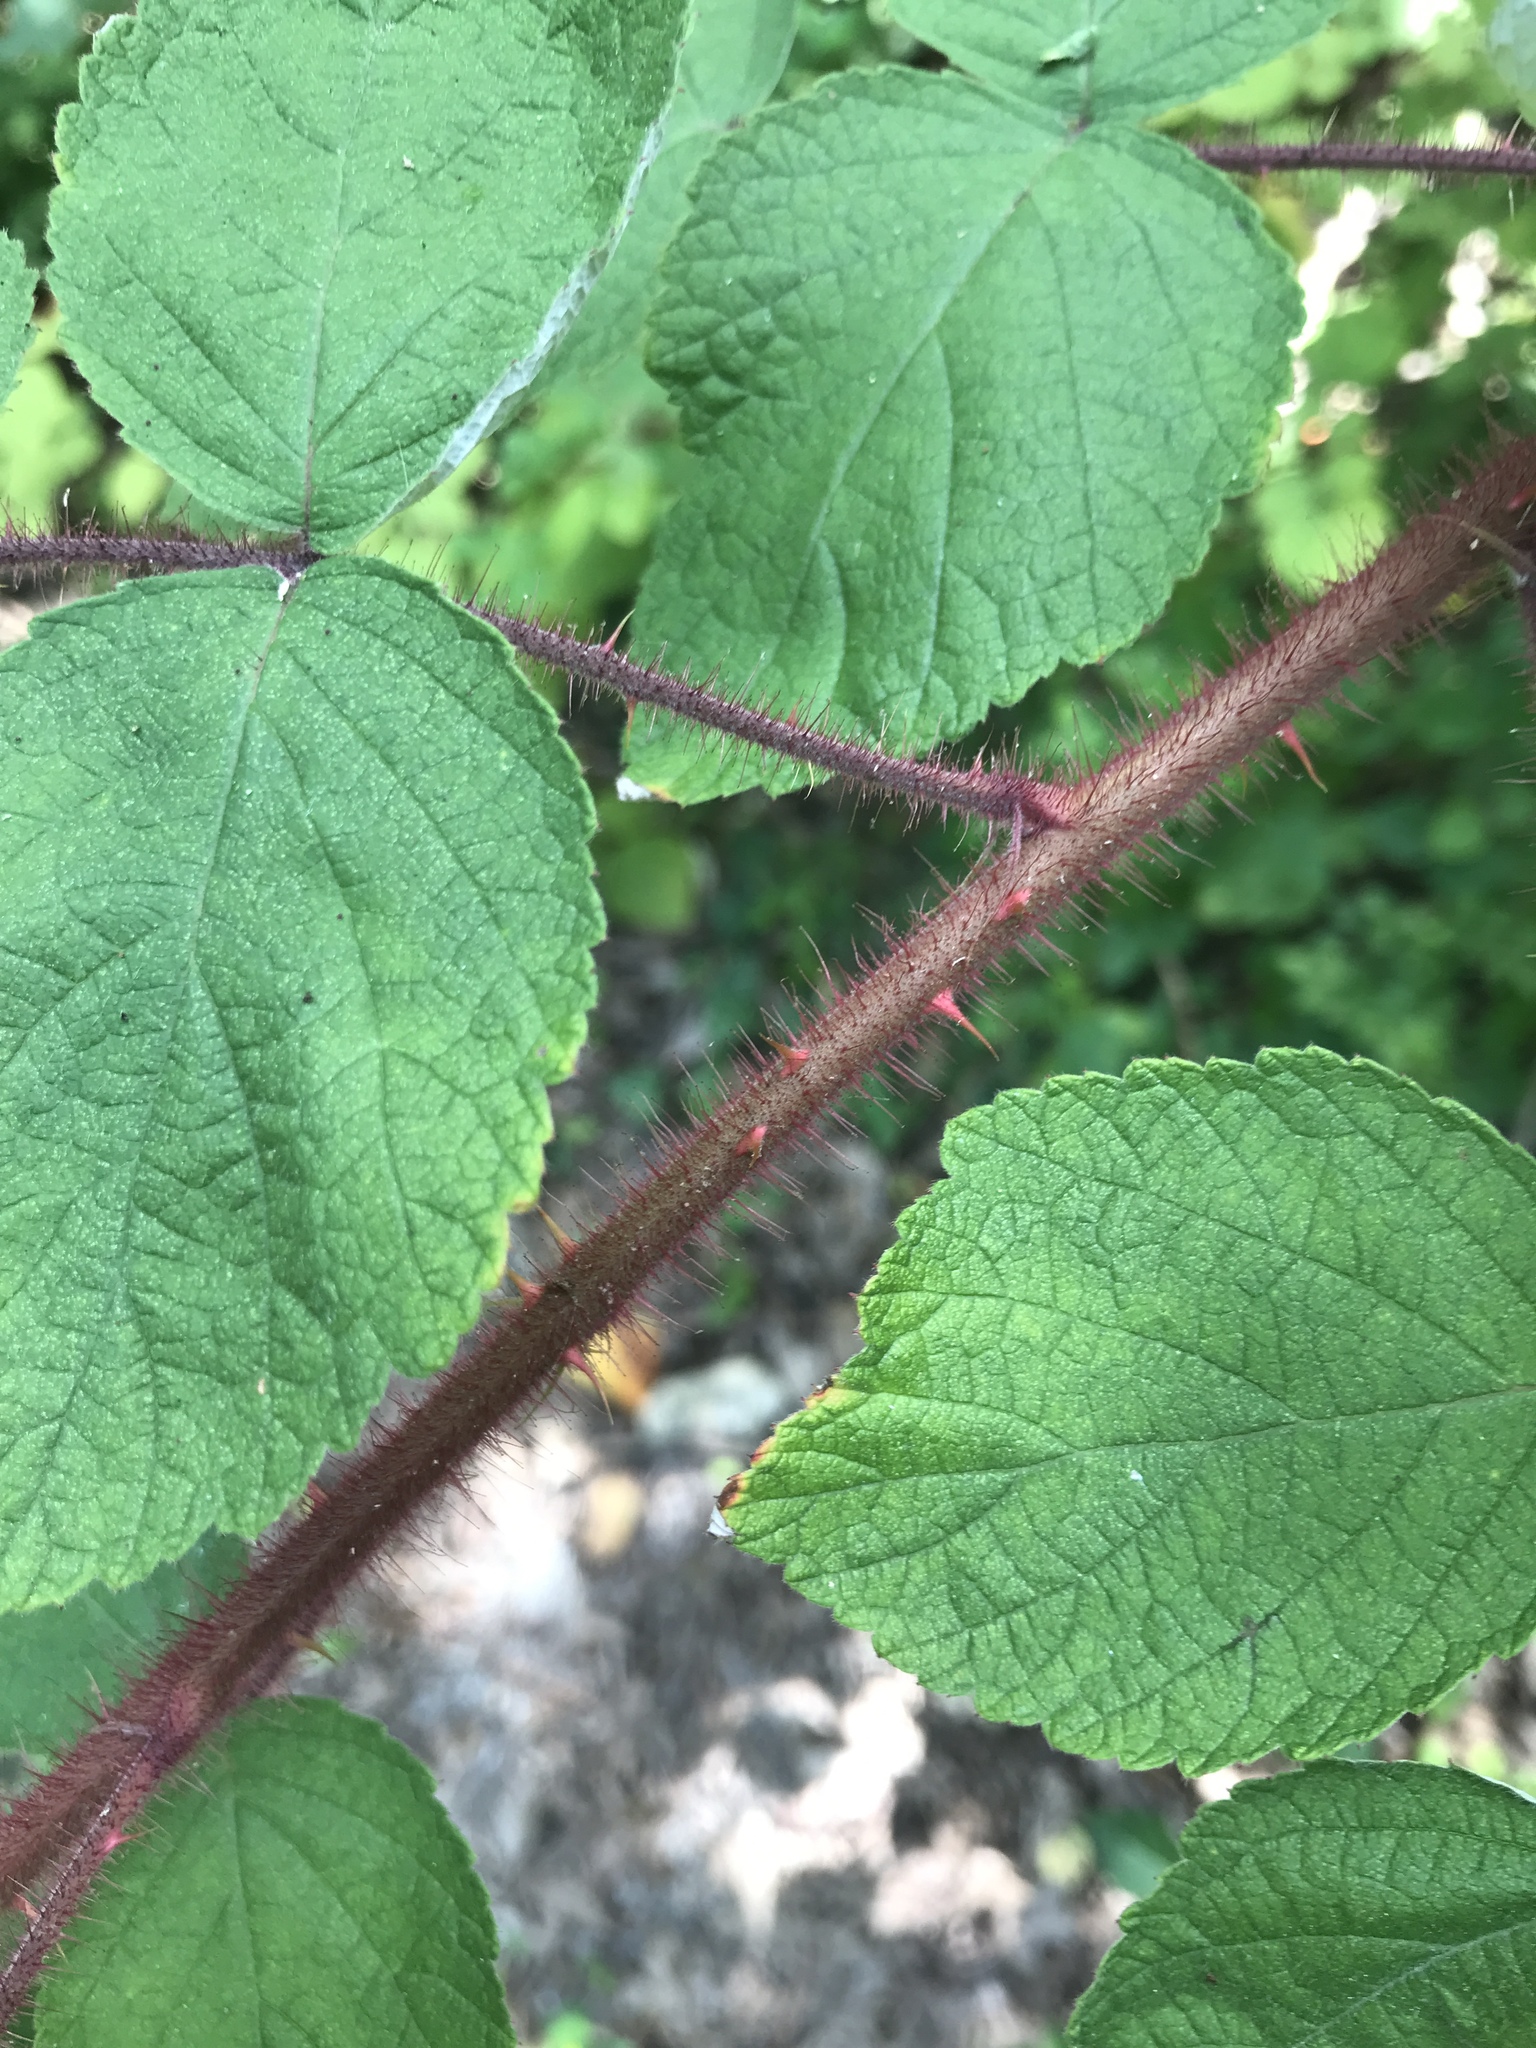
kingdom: Plantae
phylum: Tracheophyta
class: Magnoliopsida
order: Rosales
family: Rosaceae
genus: Rubus
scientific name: Rubus phoenicolasius
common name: Japanese wineberry
